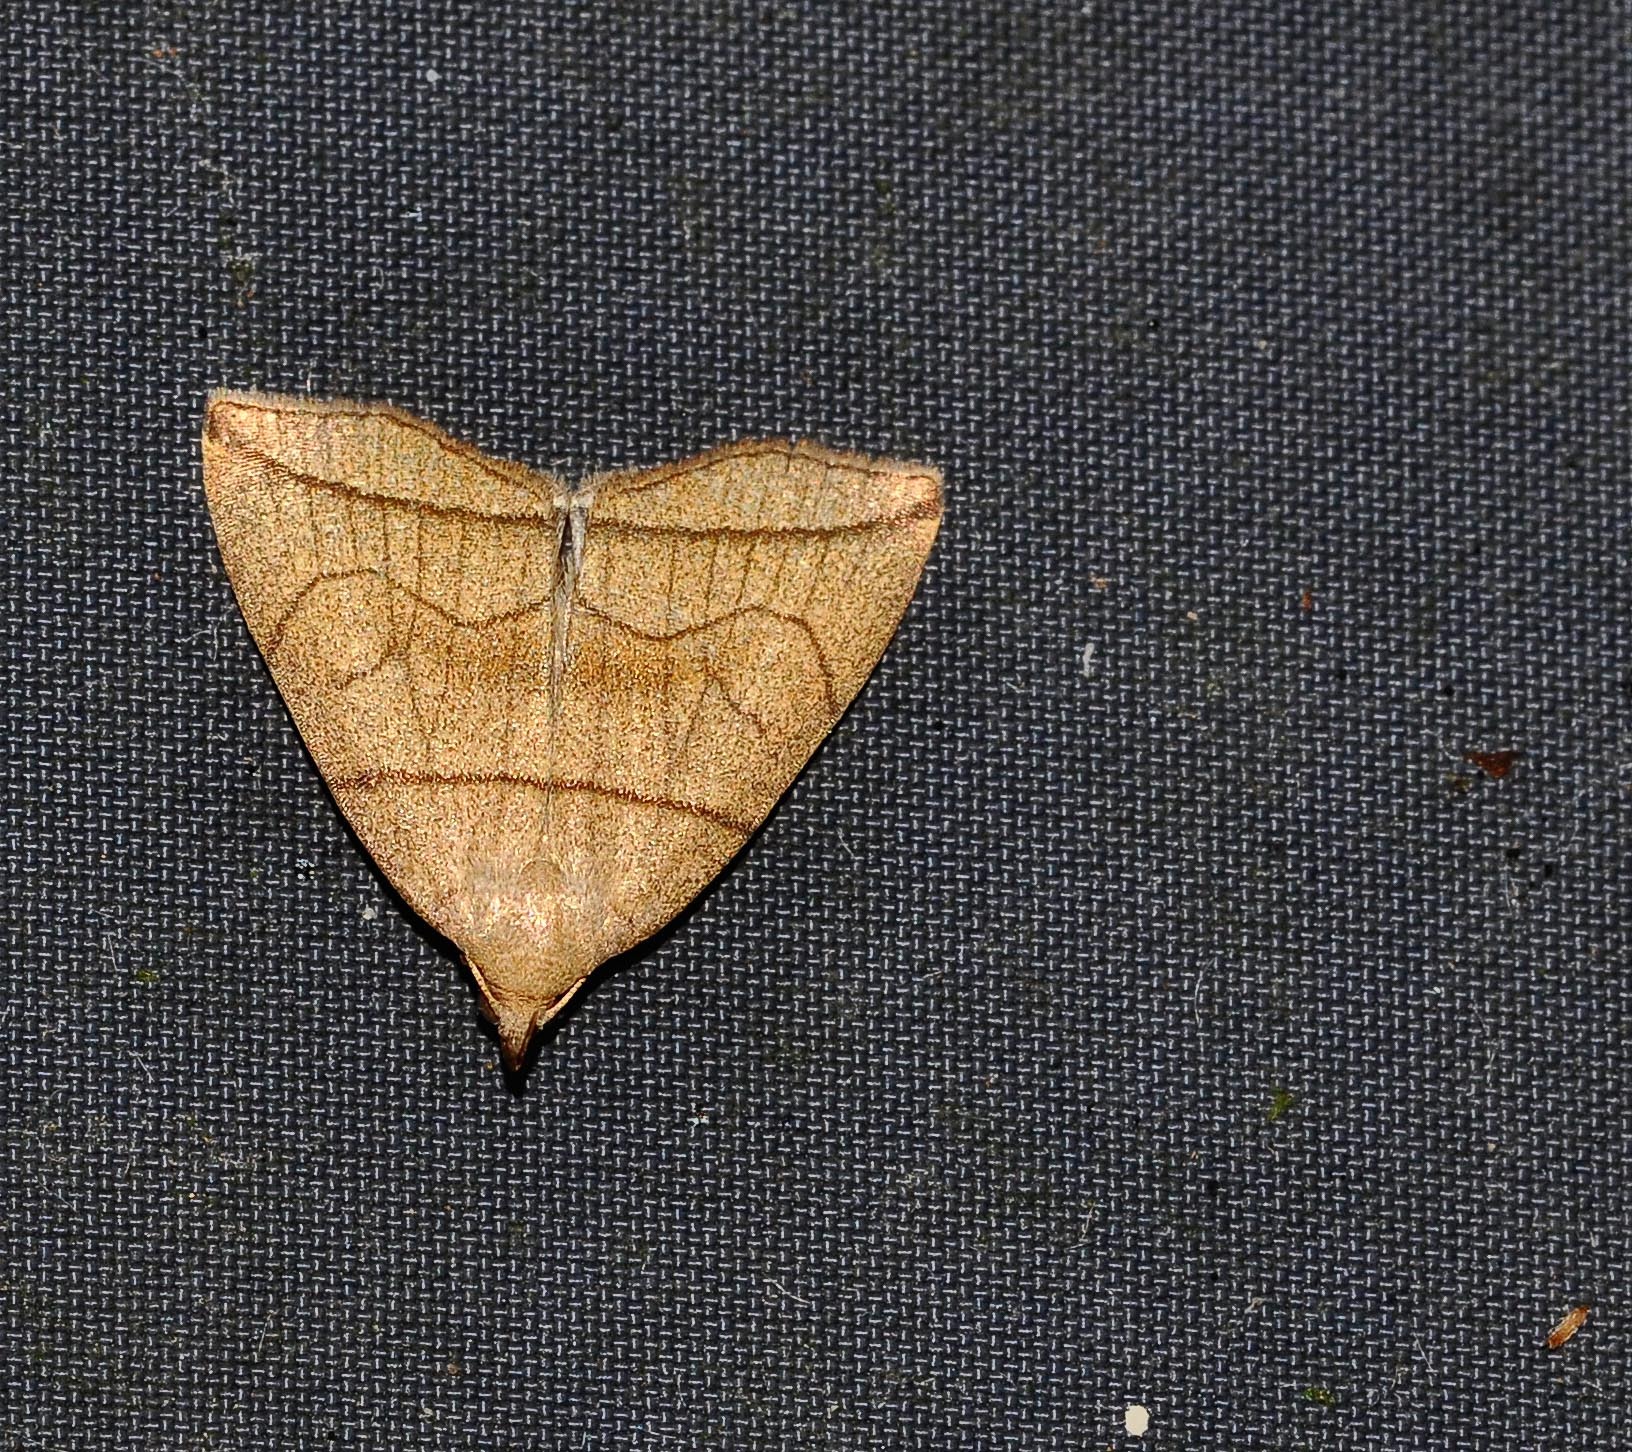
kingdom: Animalia
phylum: Arthropoda
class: Insecta
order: Lepidoptera
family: Erebidae
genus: Herminia
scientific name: Herminia grisealis
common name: Small fan-foot
